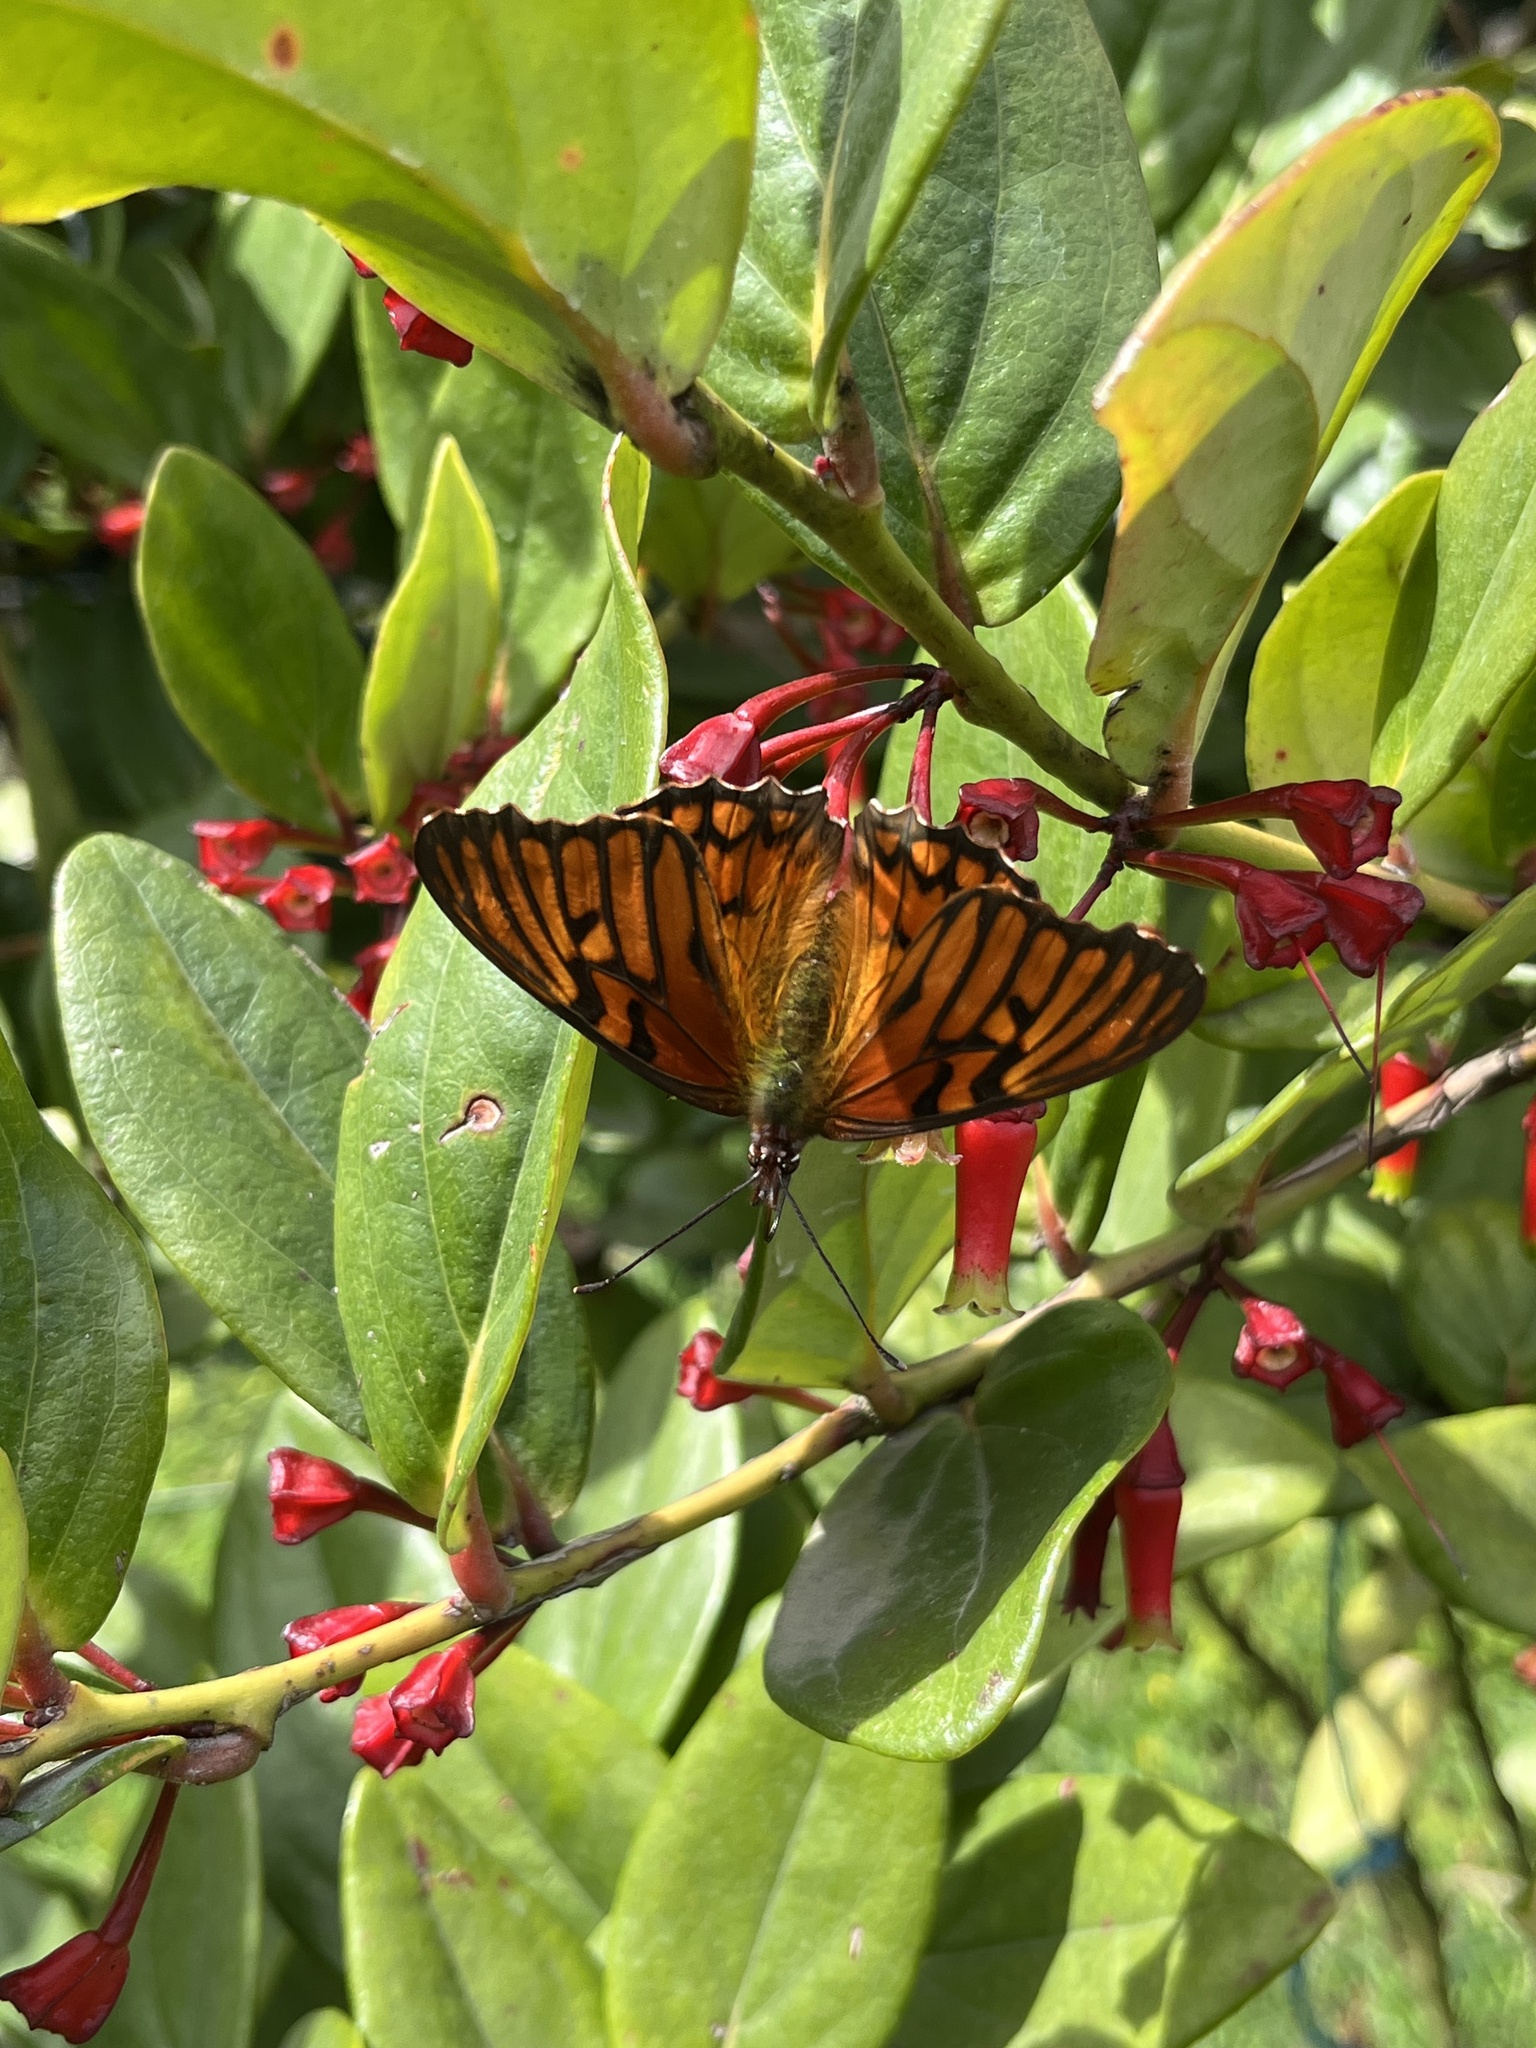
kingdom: Animalia
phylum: Arthropoda
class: Insecta
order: Lepidoptera
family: Nymphalidae
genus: Dione
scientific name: Dione glycera
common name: Andean silverspot
